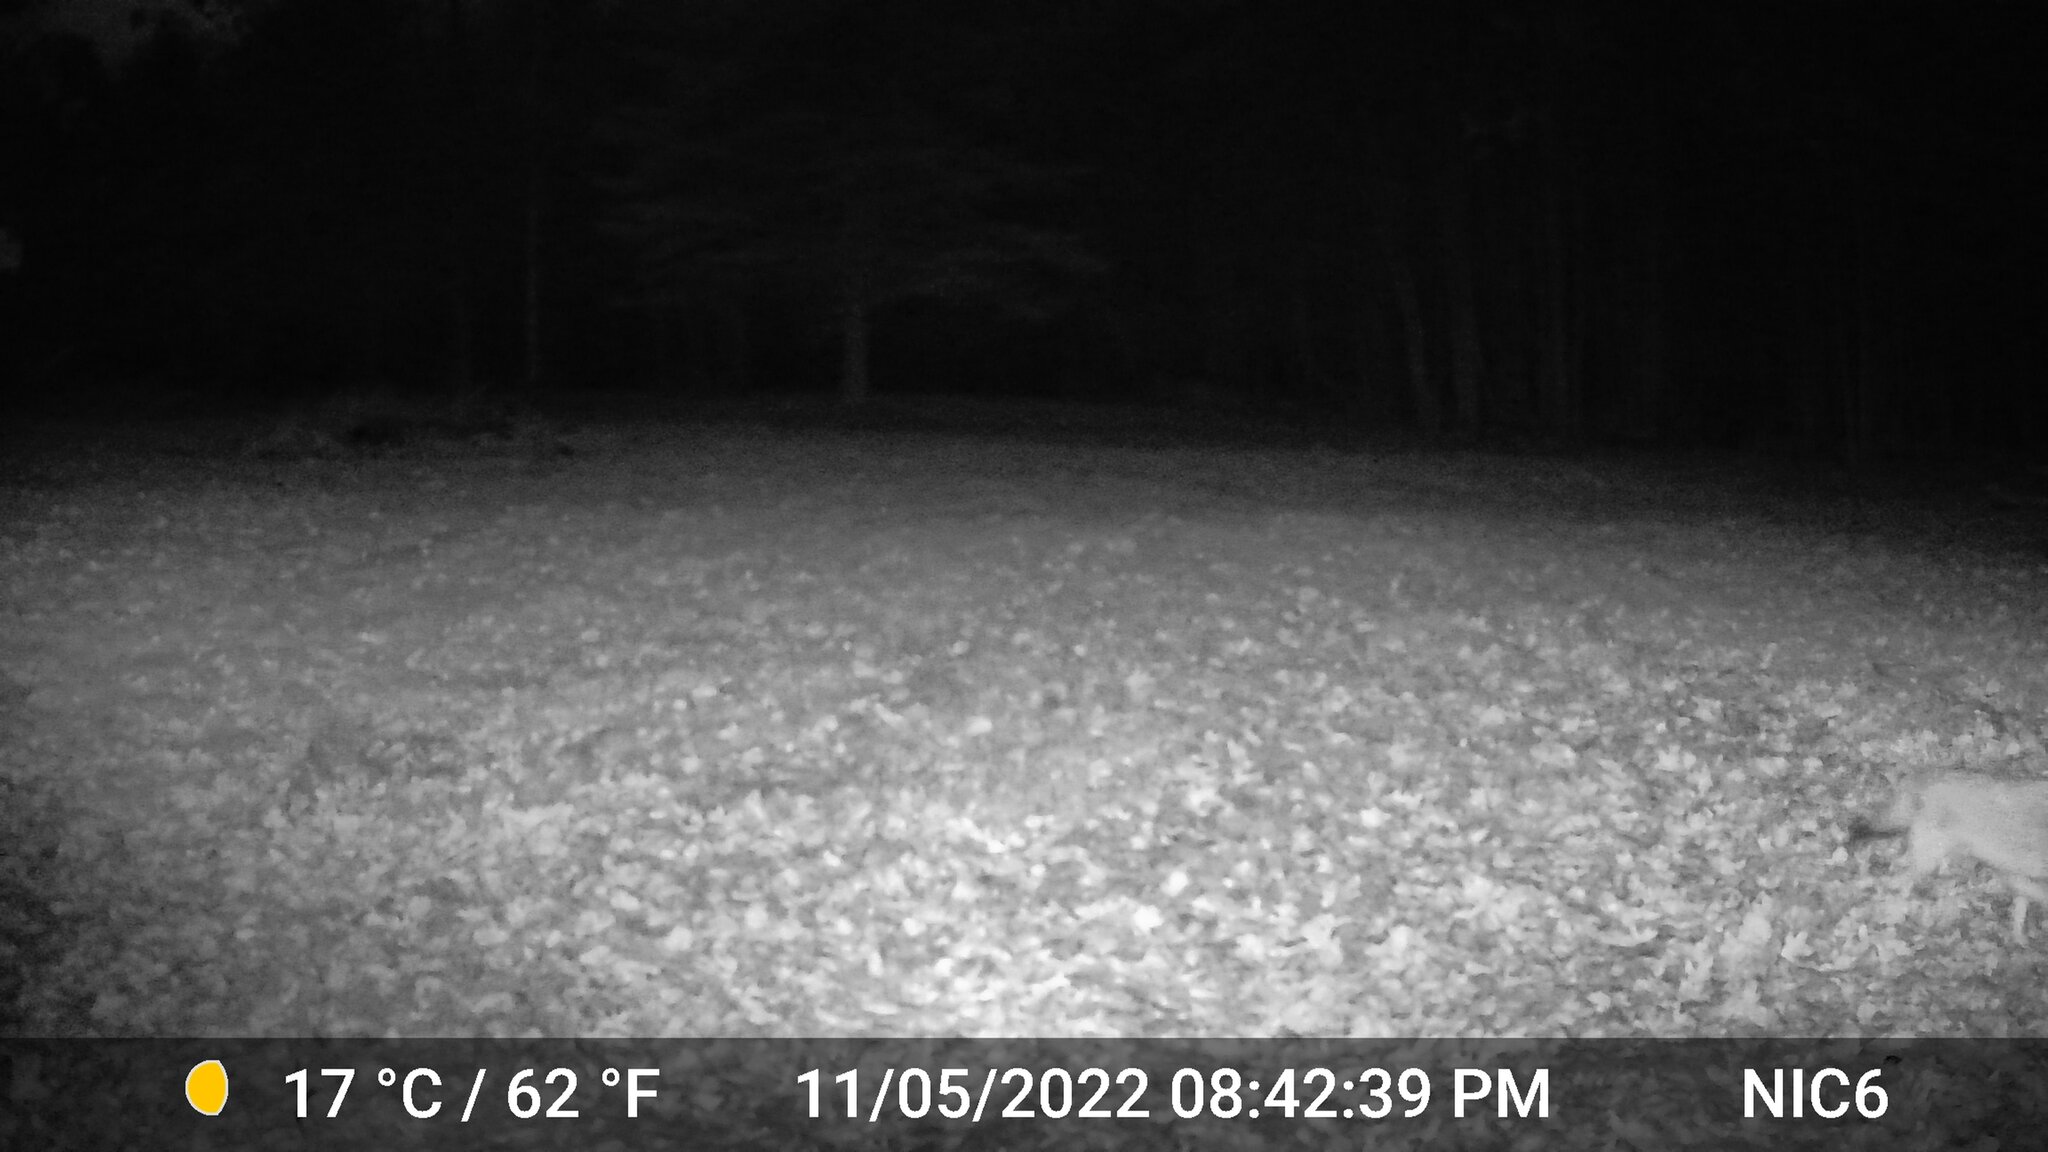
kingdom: Animalia
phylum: Chordata
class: Mammalia
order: Carnivora
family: Canidae
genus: Canis
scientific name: Canis latrans
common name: Coyote
